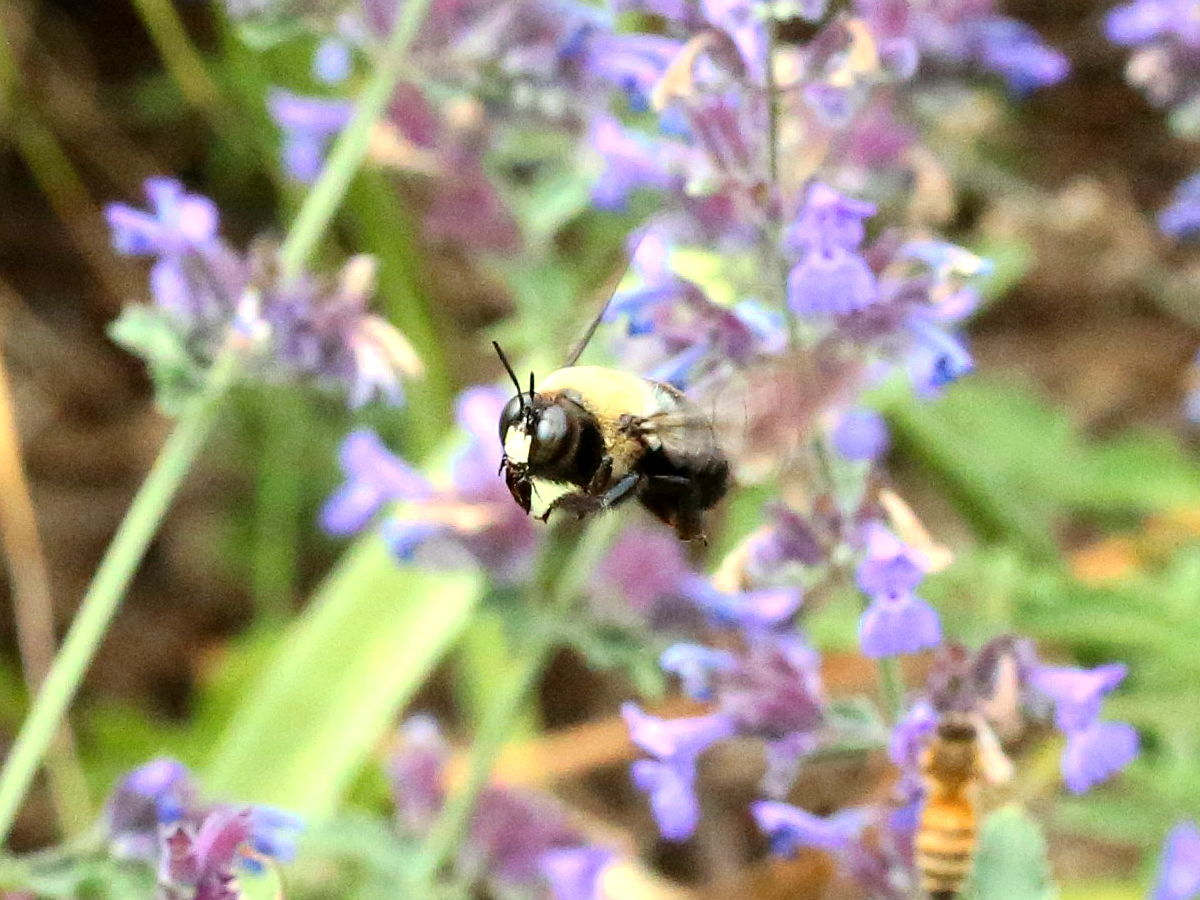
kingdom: Animalia
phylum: Arthropoda
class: Insecta
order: Hymenoptera
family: Apidae
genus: Xylocopa
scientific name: Xylocopa virginica
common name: Carpenter bee
